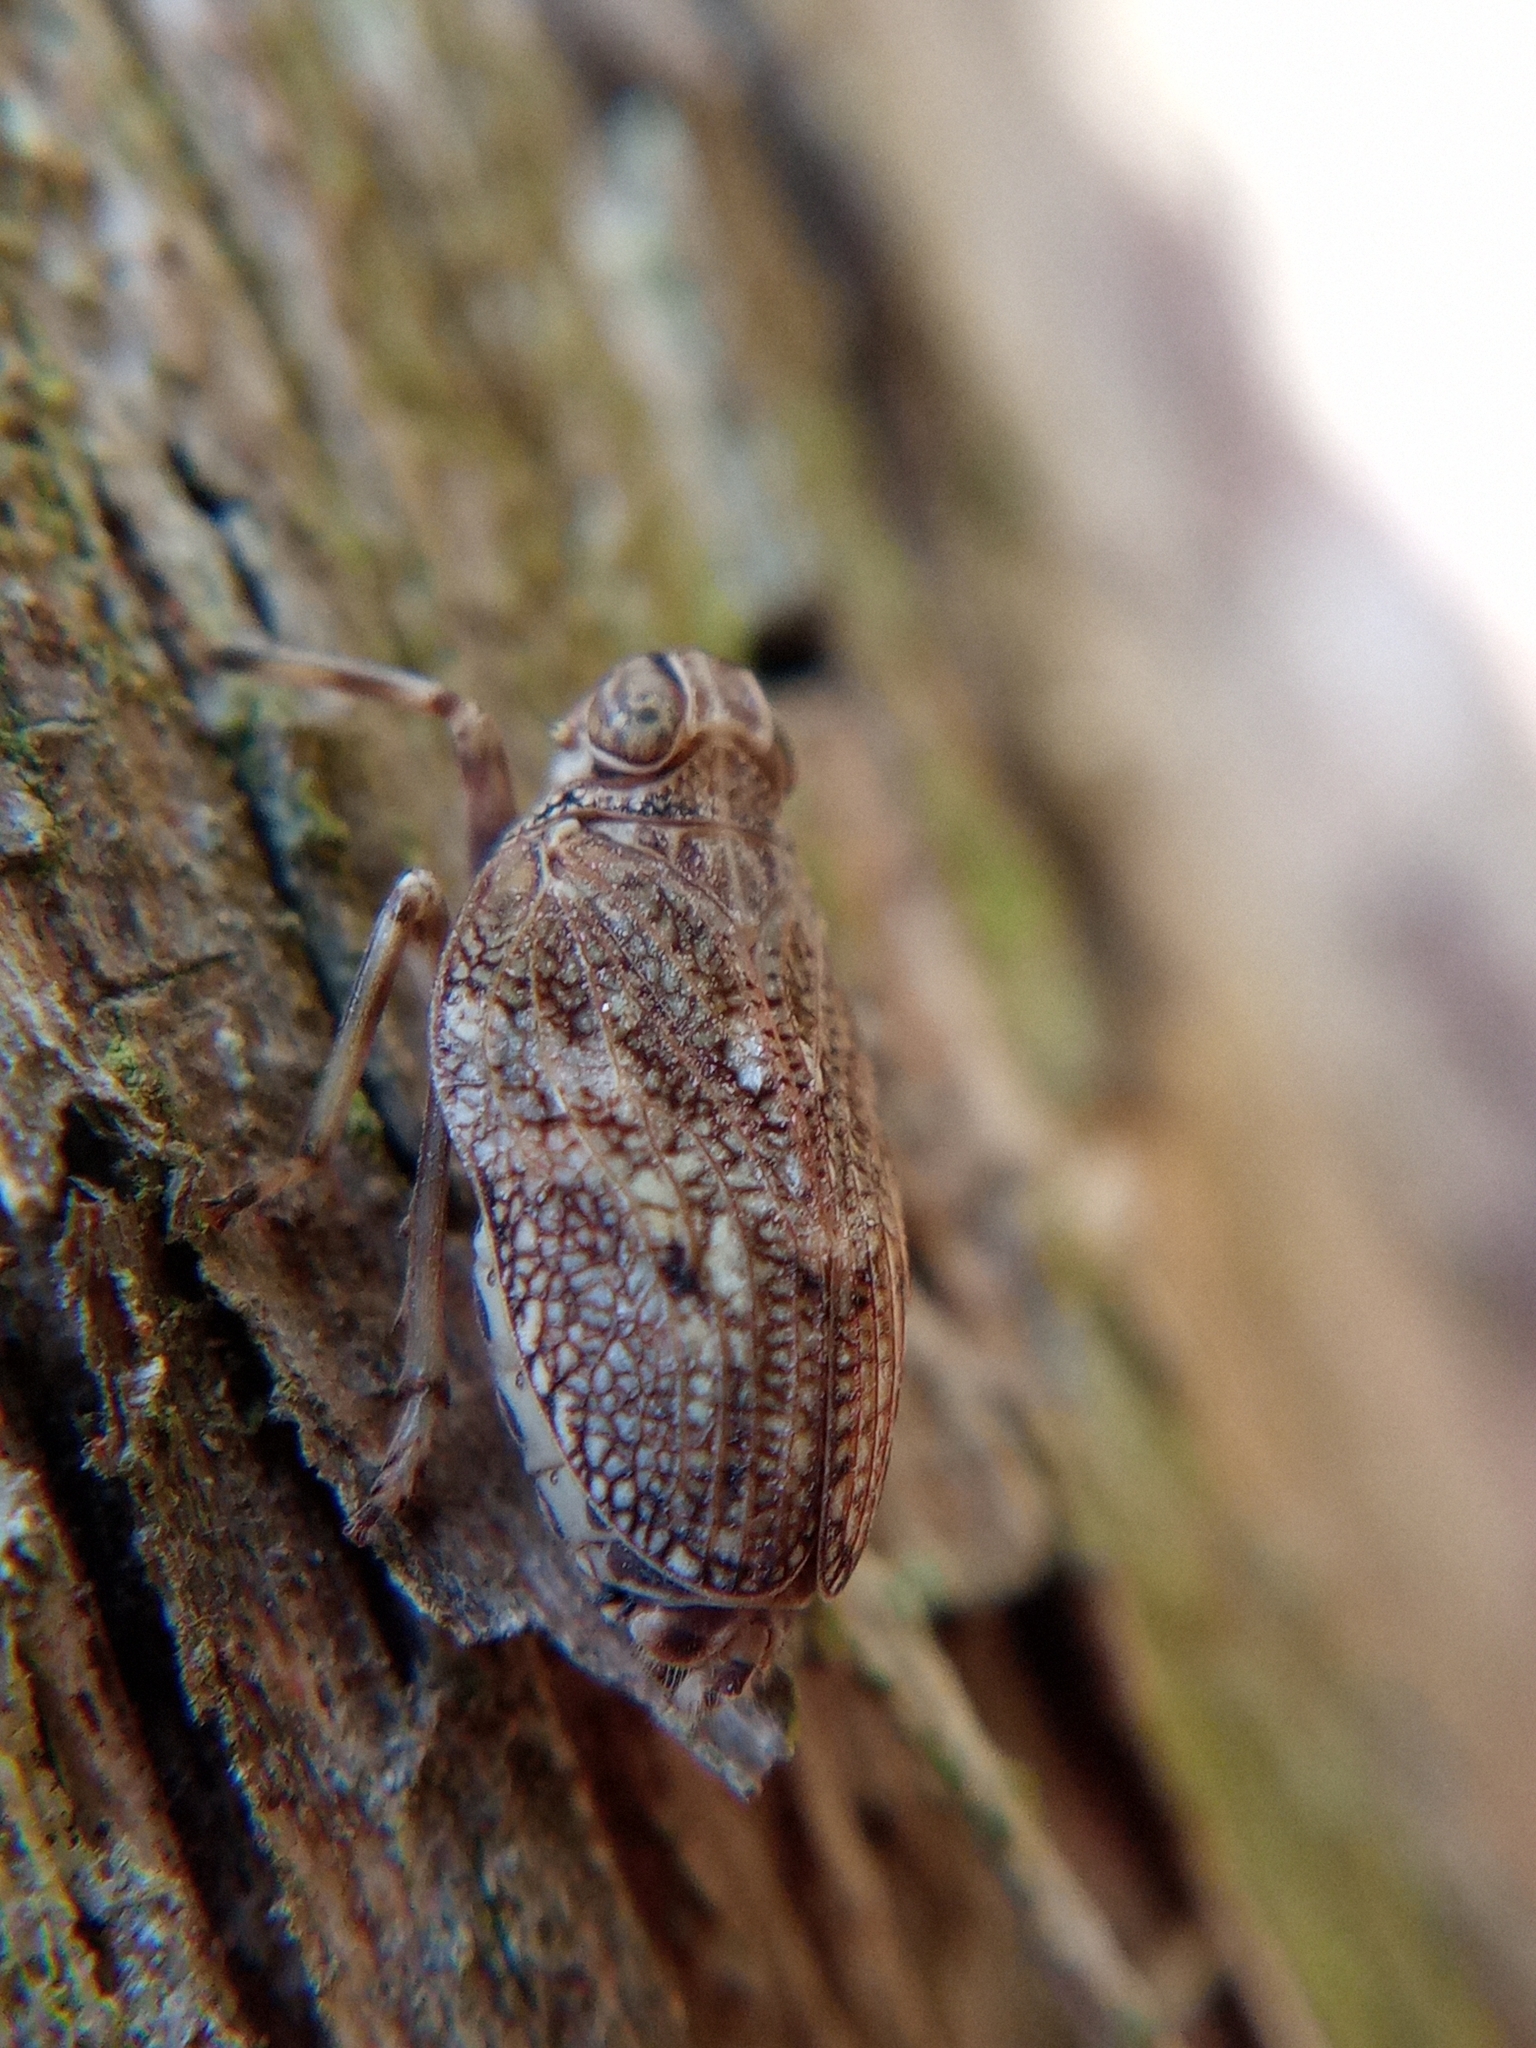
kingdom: Animalia
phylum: Arthropoda
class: Insecta
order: Hemiptera
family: Issidae
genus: Issus
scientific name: Issus coleoptratus
